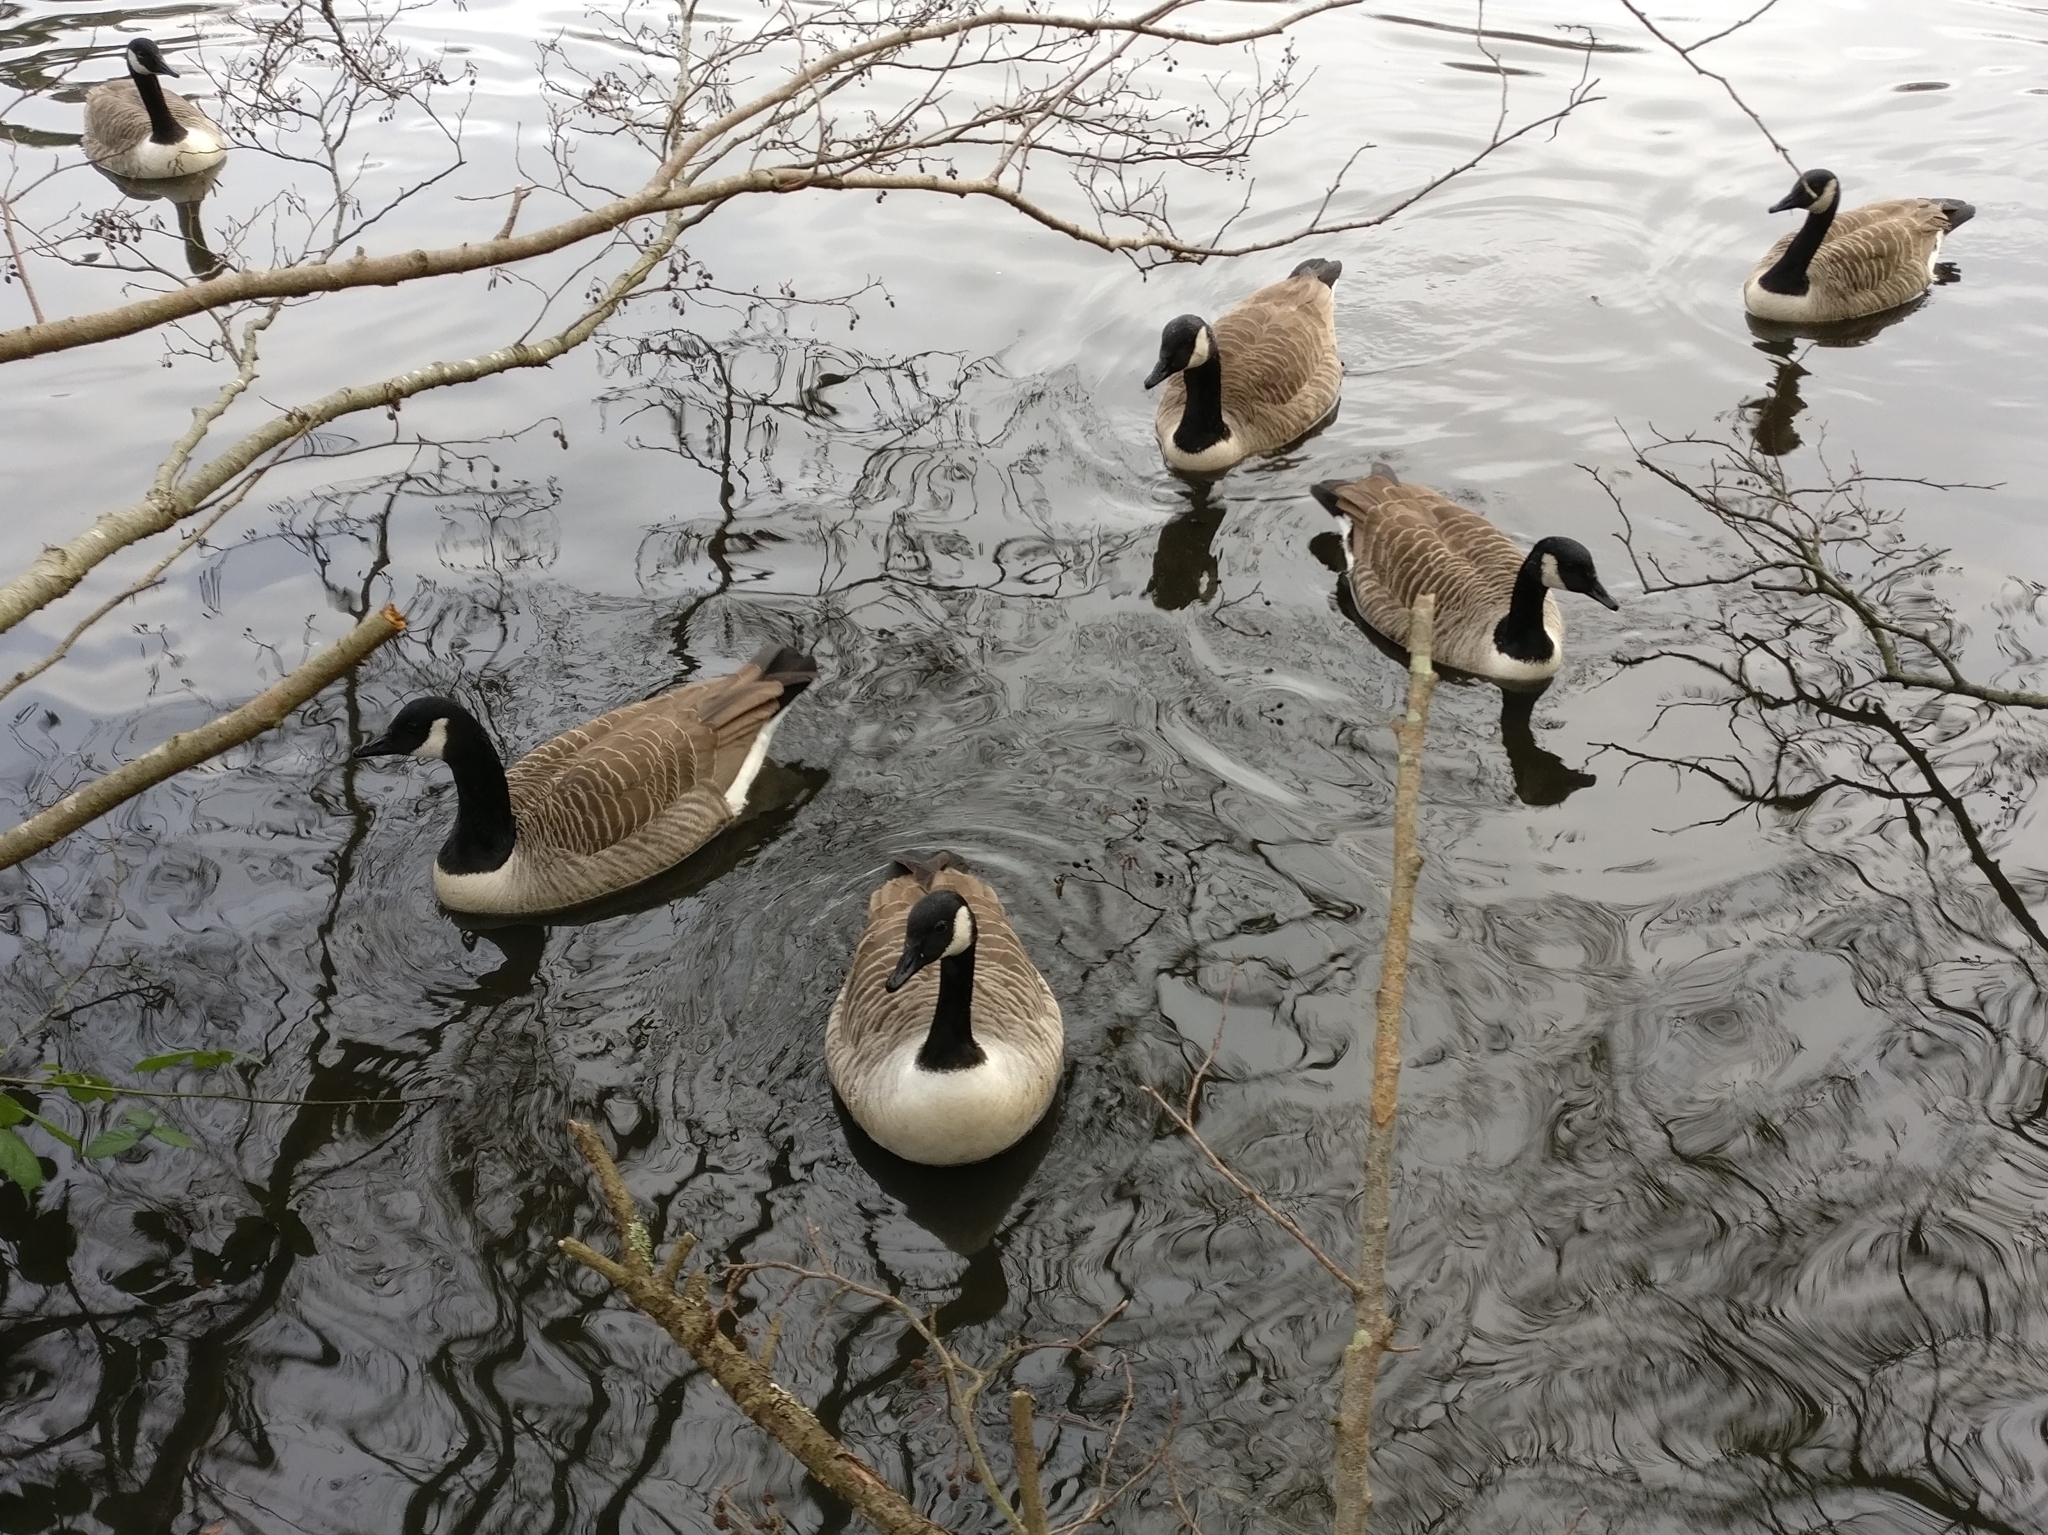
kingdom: Animalia
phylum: Chordata
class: Aves
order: Anseriformes
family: Anatidae
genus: Branta
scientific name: Branta canadensis
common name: Canada goose
